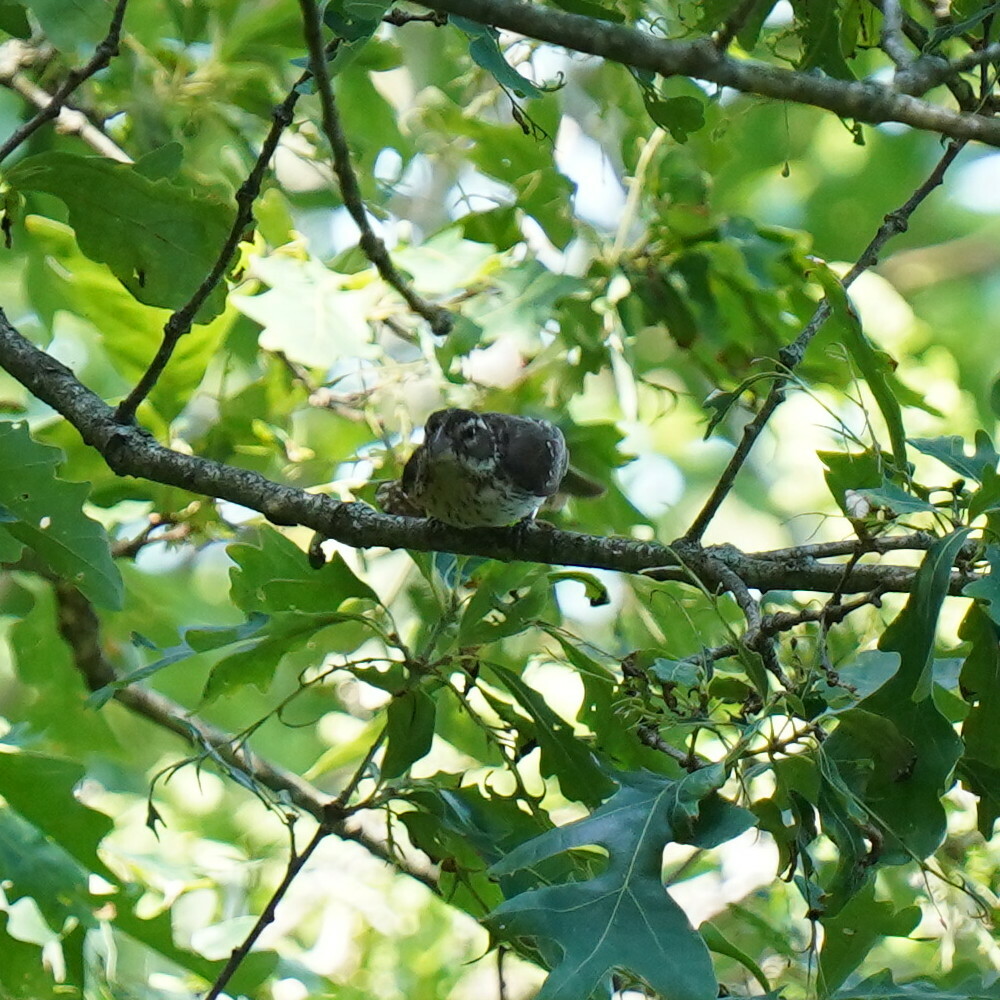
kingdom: Animalia
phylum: Chordata
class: Aves
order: Passeriformes
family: Cardinalidae
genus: Pheucticus
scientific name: Pheucticus ludovicianus
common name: Rose-breasted grosbeak
